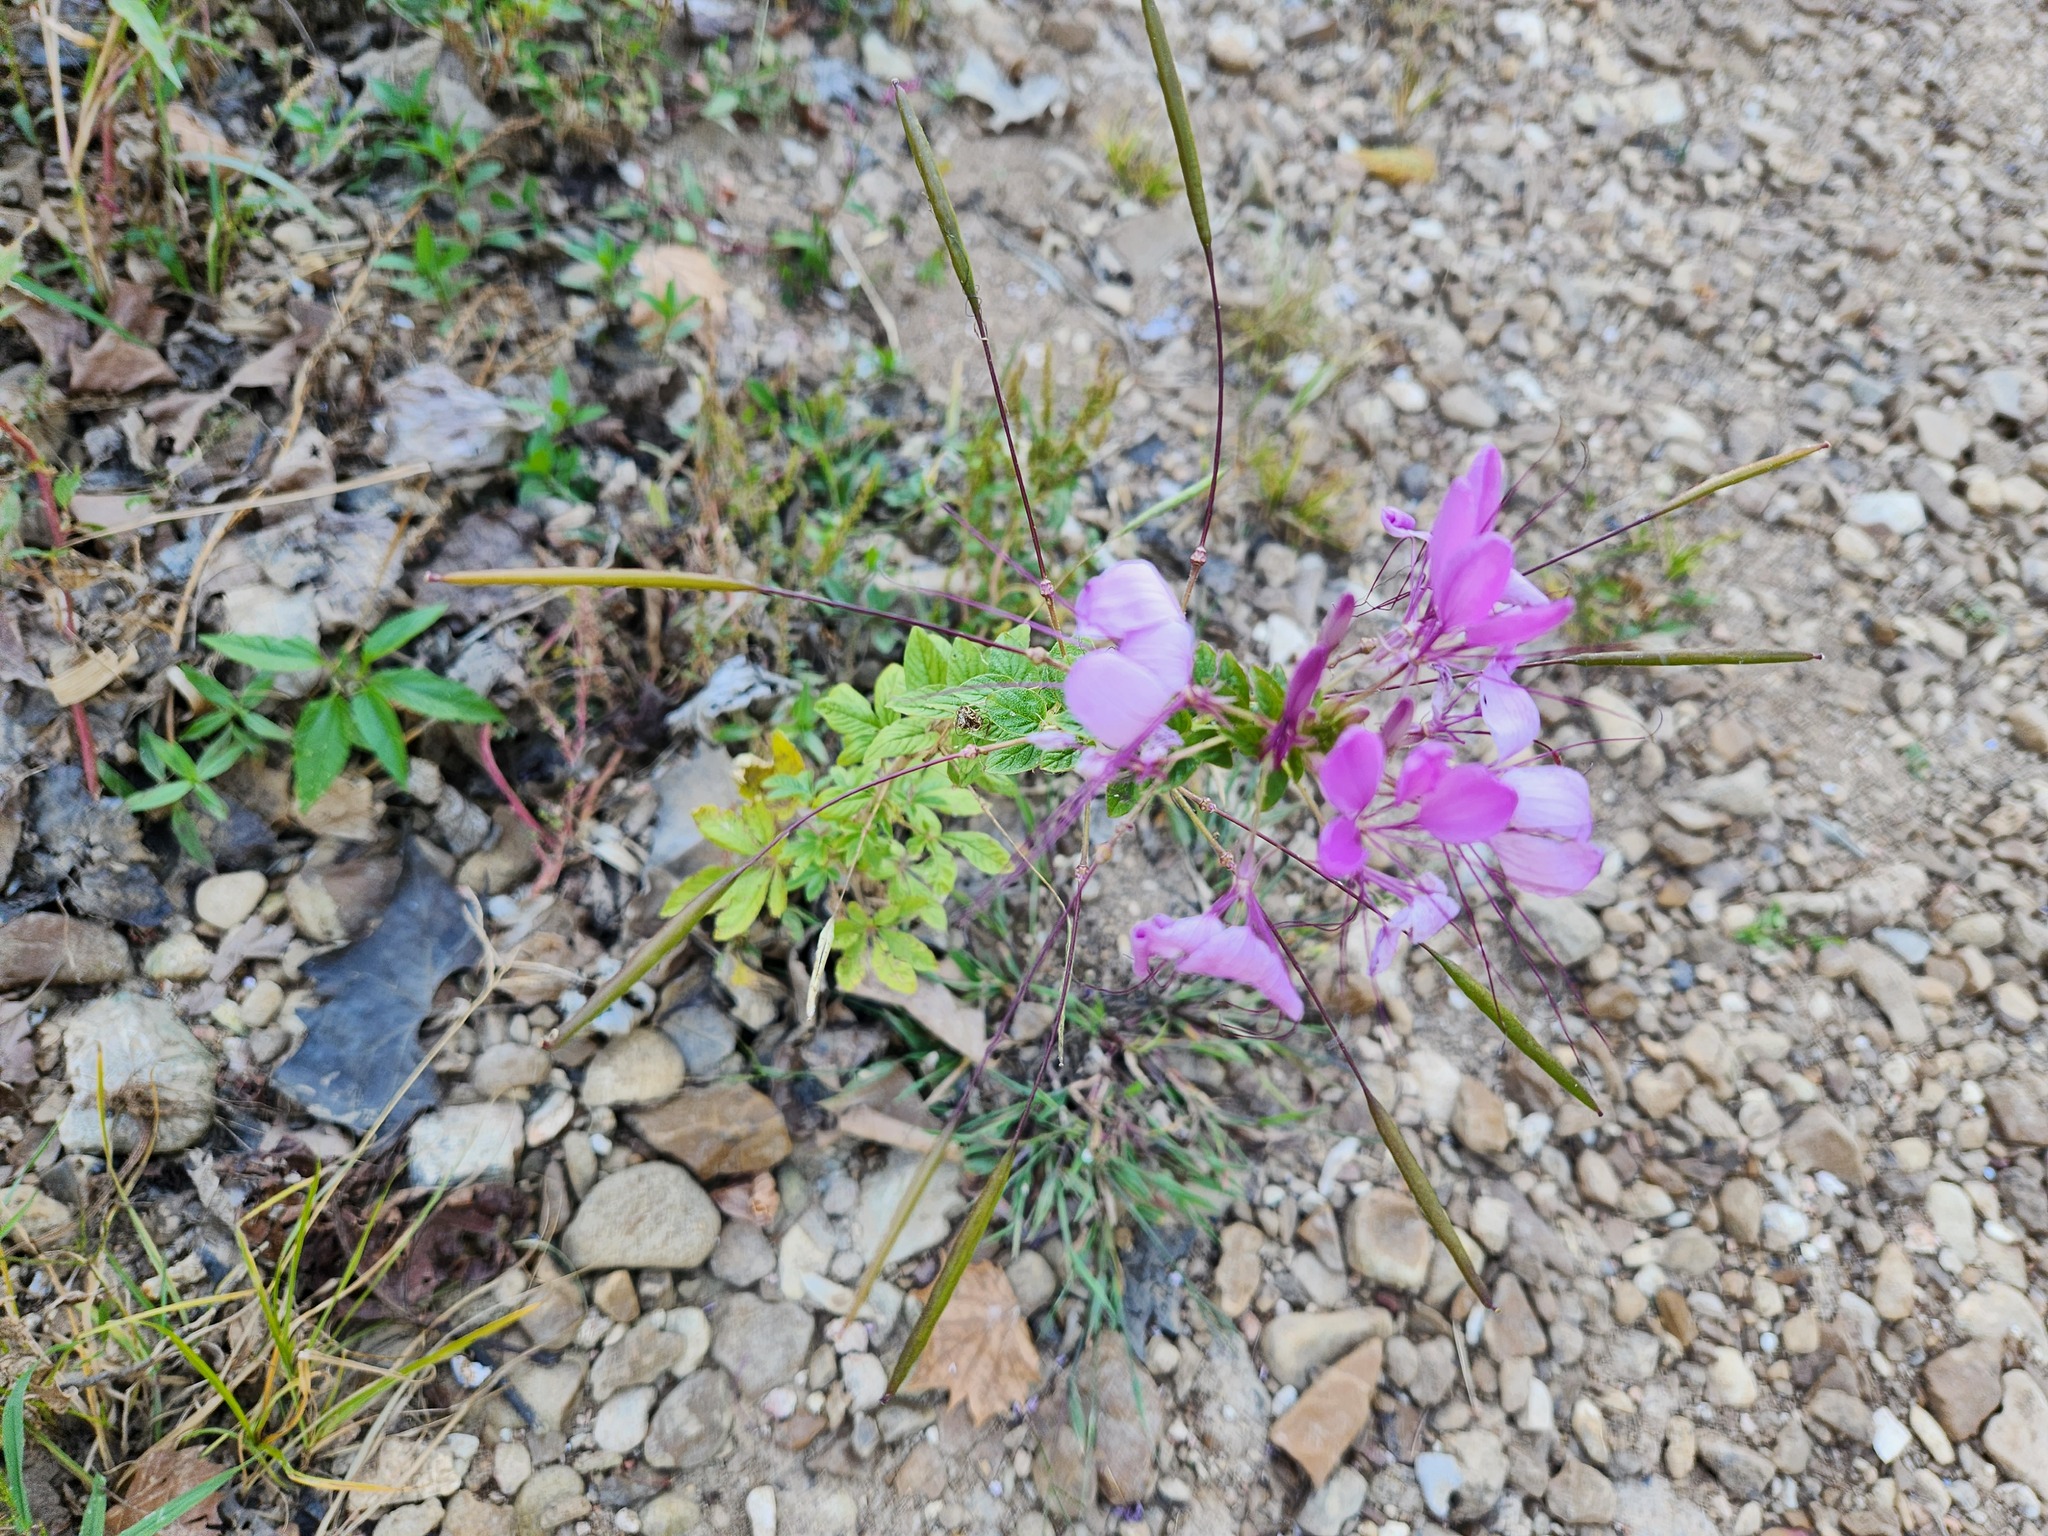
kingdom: Plantae
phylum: Tracheophyta
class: Magnoliopsida
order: Brassicales
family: Cleomaceae
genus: Tarenaya
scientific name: Tarenaya houtteana
